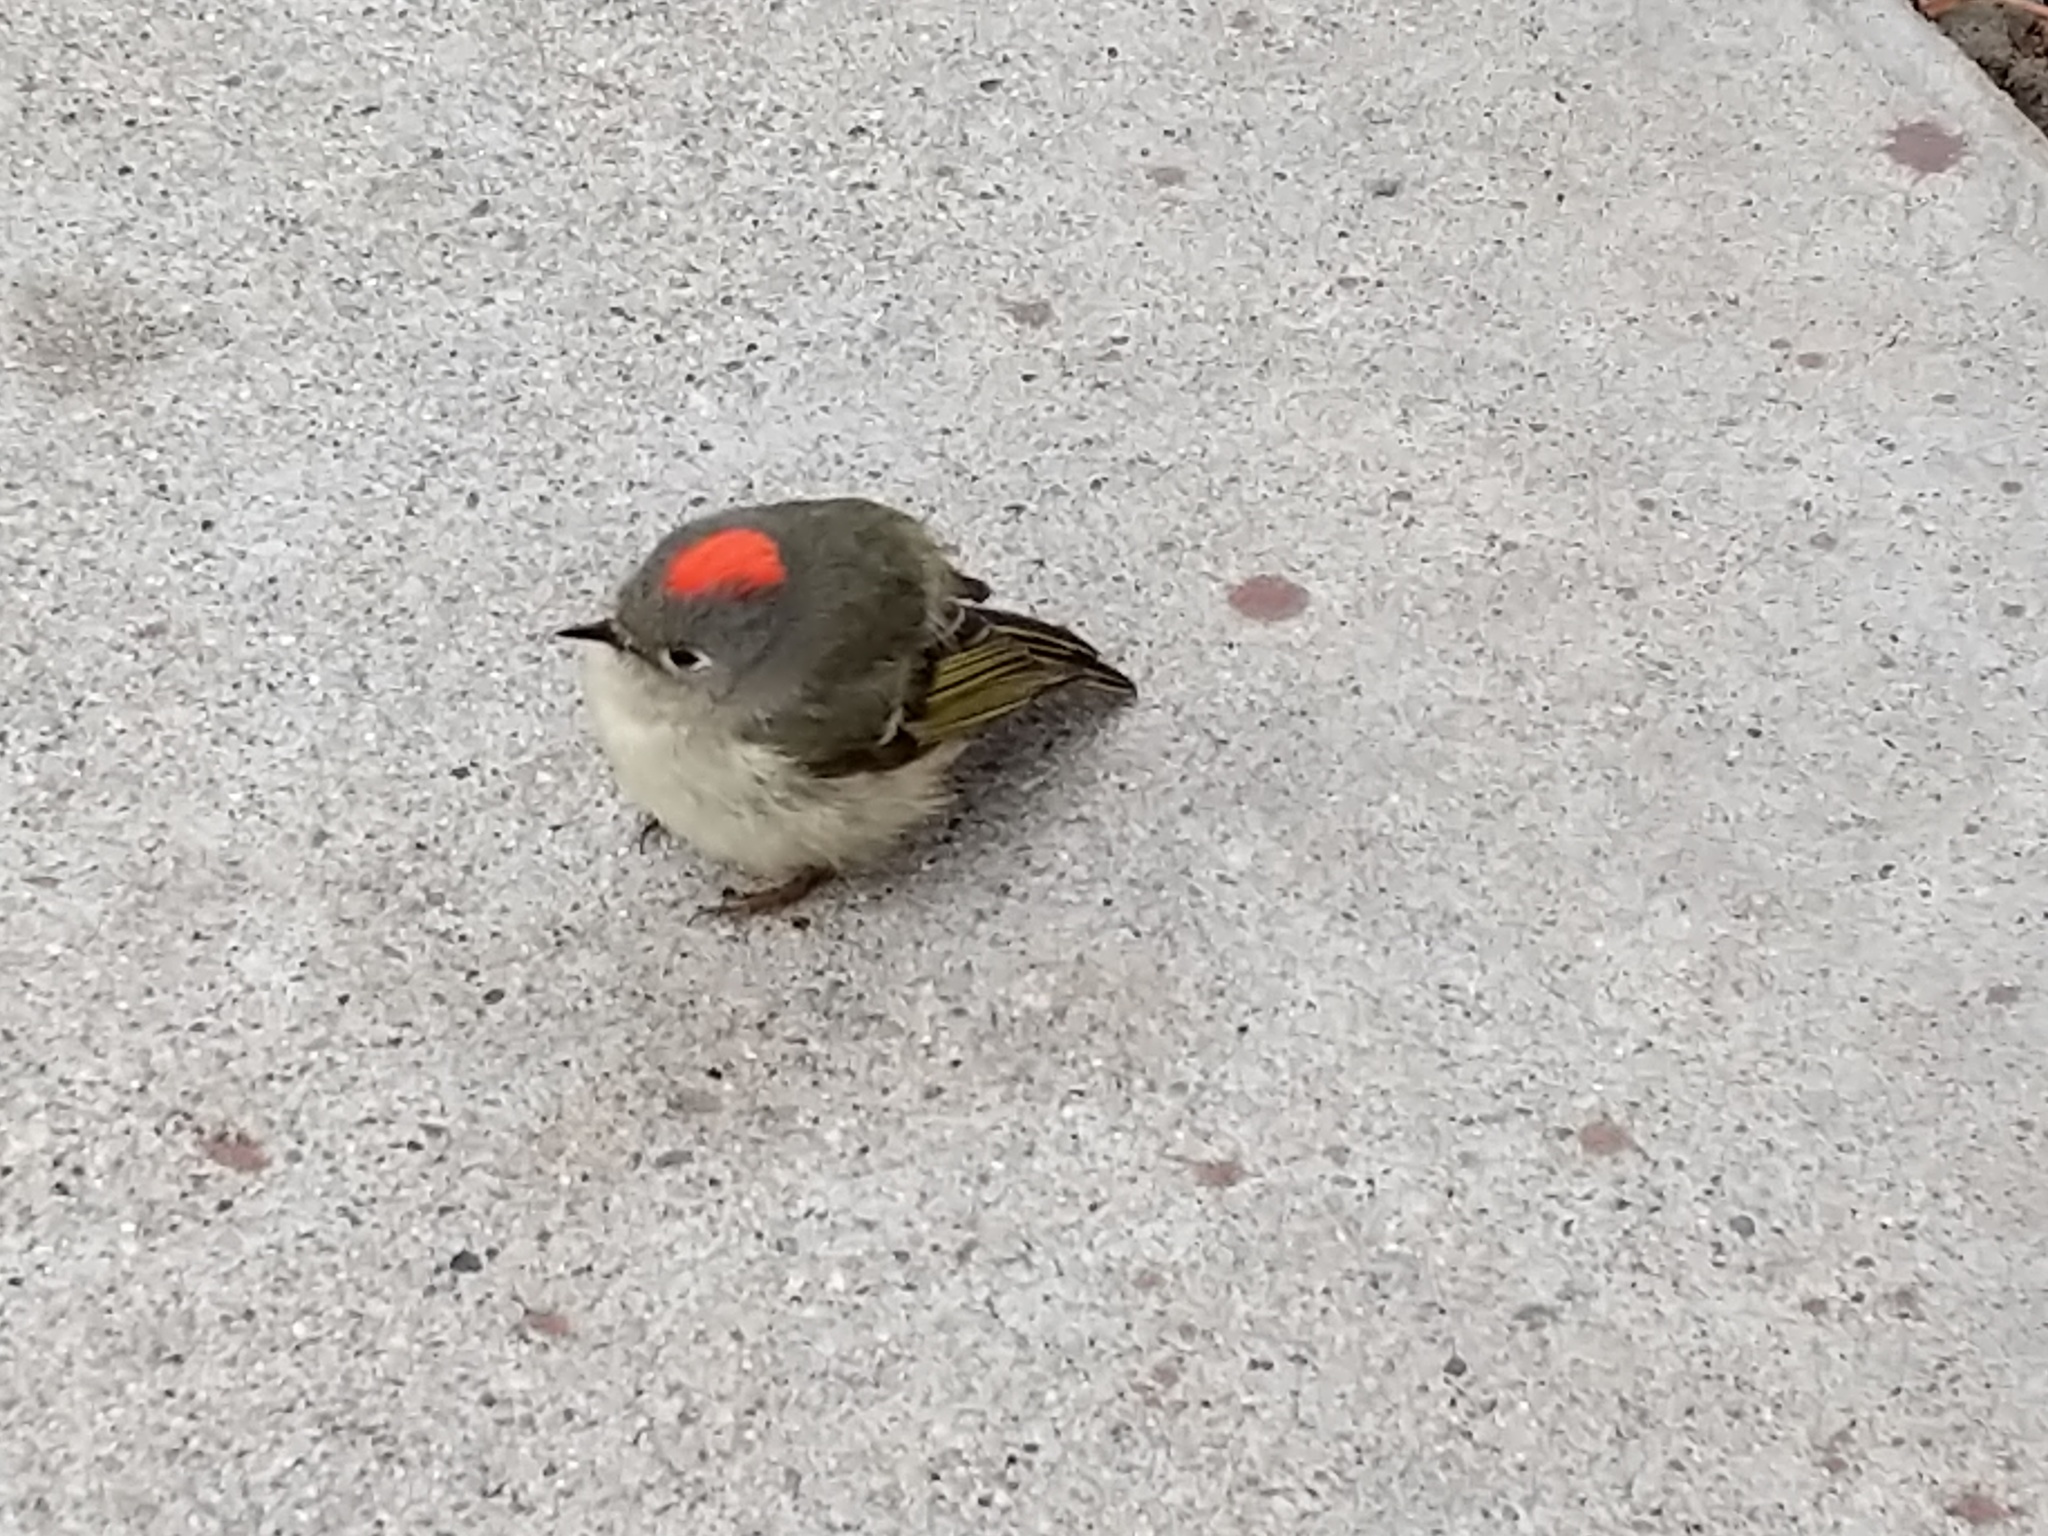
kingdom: Animalia
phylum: Chordata
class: Aves
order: Passeriformes
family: Regulidae
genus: Regulus
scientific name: Regulus calendula
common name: Ruby-crowned kinglet
